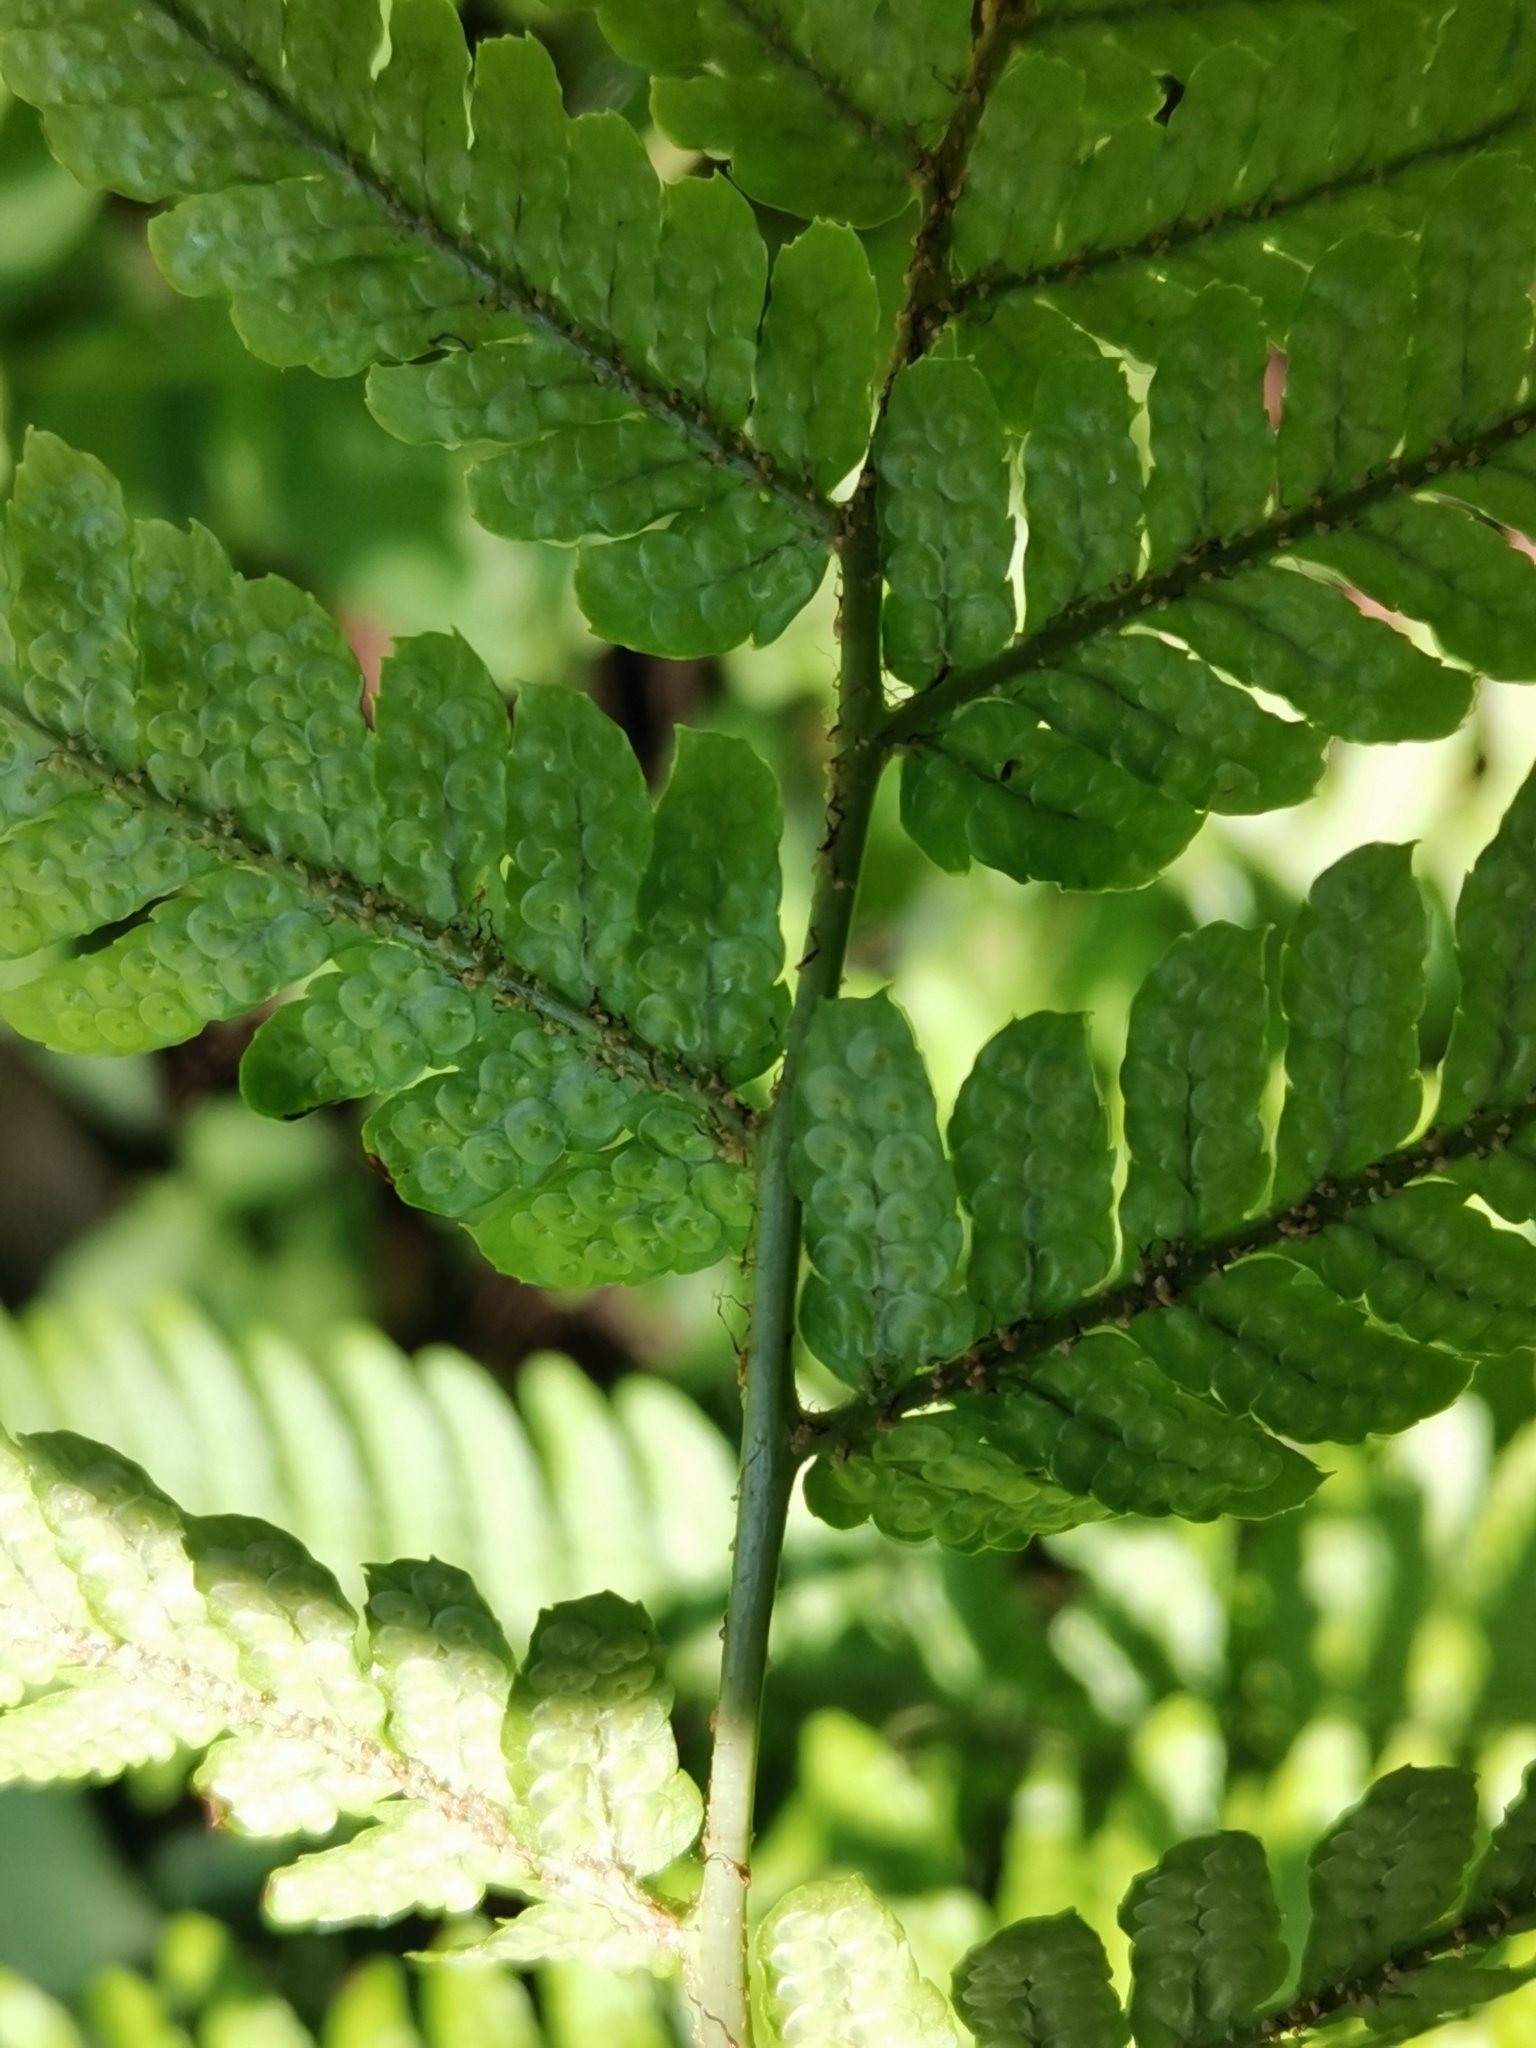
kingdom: Plantae
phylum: Tracheophyta
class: Polypodiopsida
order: Polypodiales
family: Dryopteridaceae
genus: Dryopteris
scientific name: Dryopteris hondoensis
